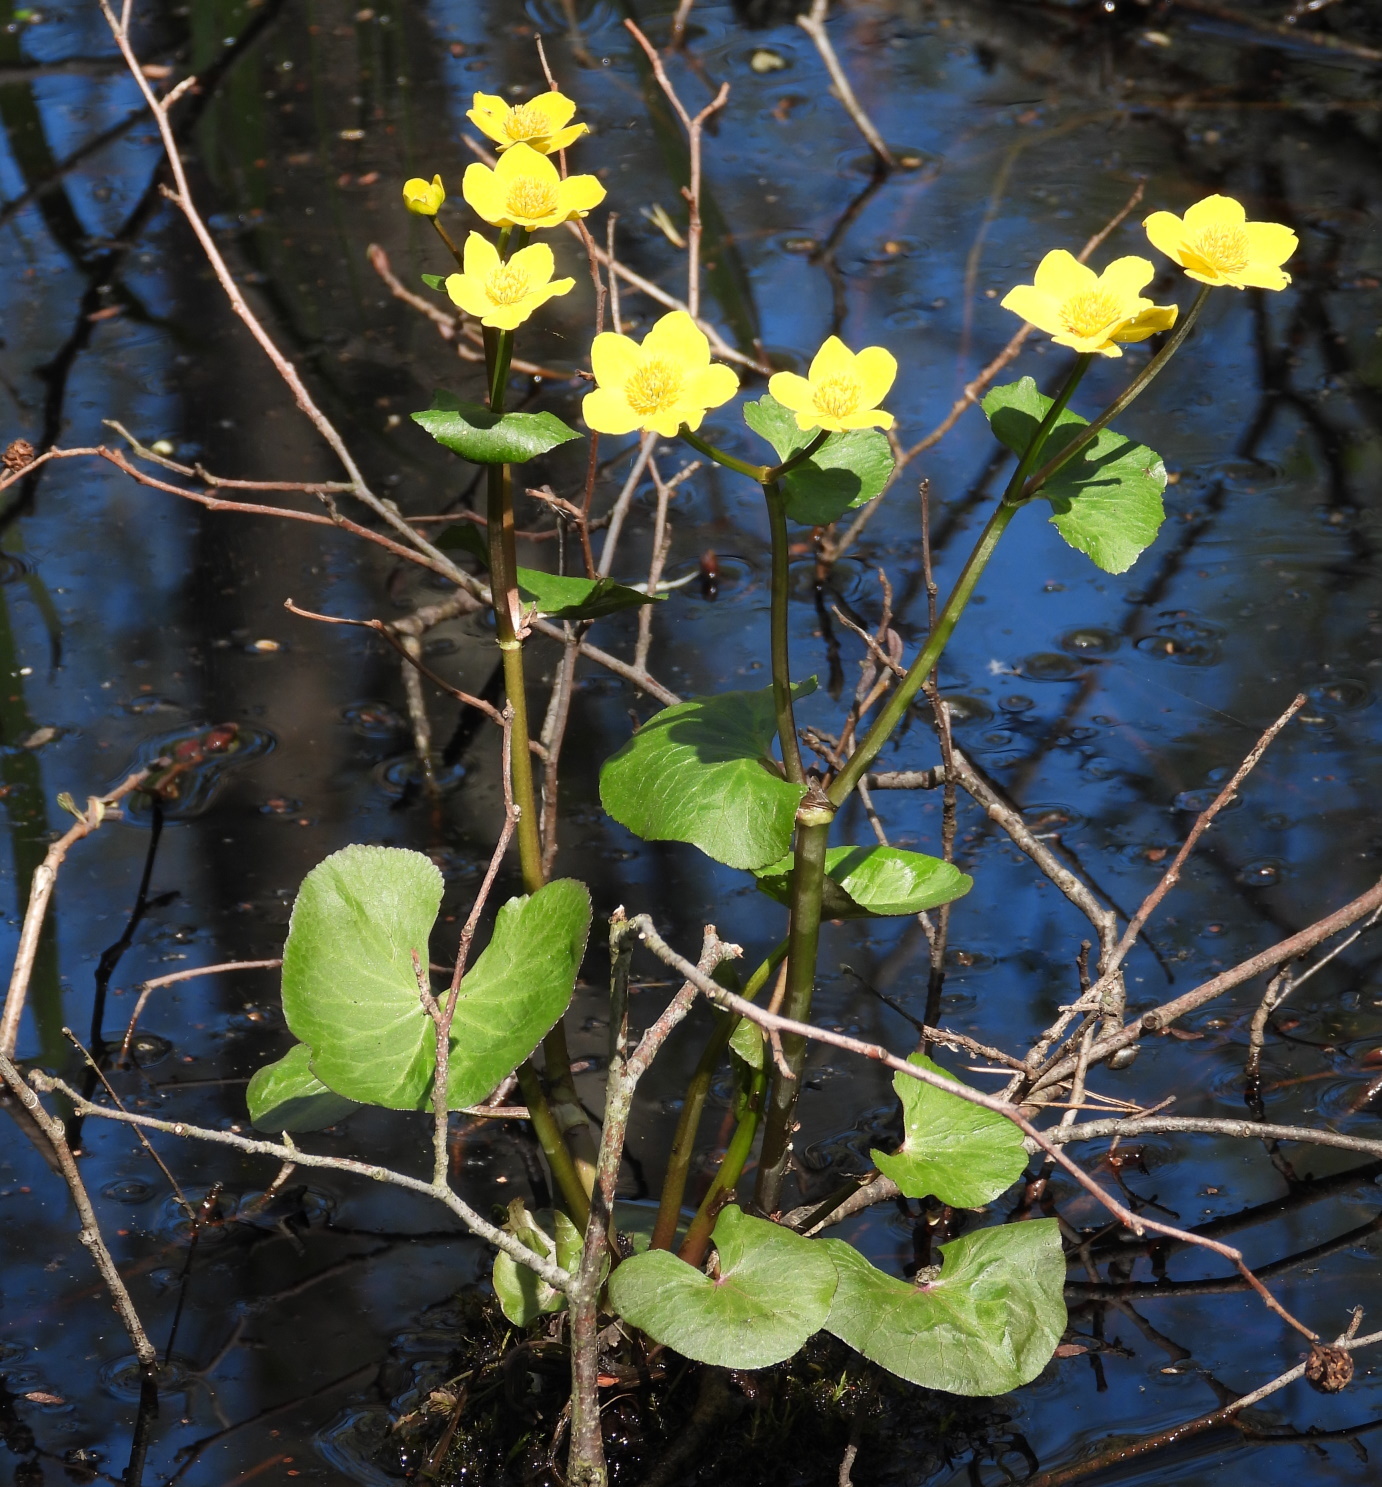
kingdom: Plantae
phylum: Tracheophyta
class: Magnoliopsida
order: Ranunculales
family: Ranunculaceae
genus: Caltha
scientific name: Caltha palustris
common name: Marsh marigold
